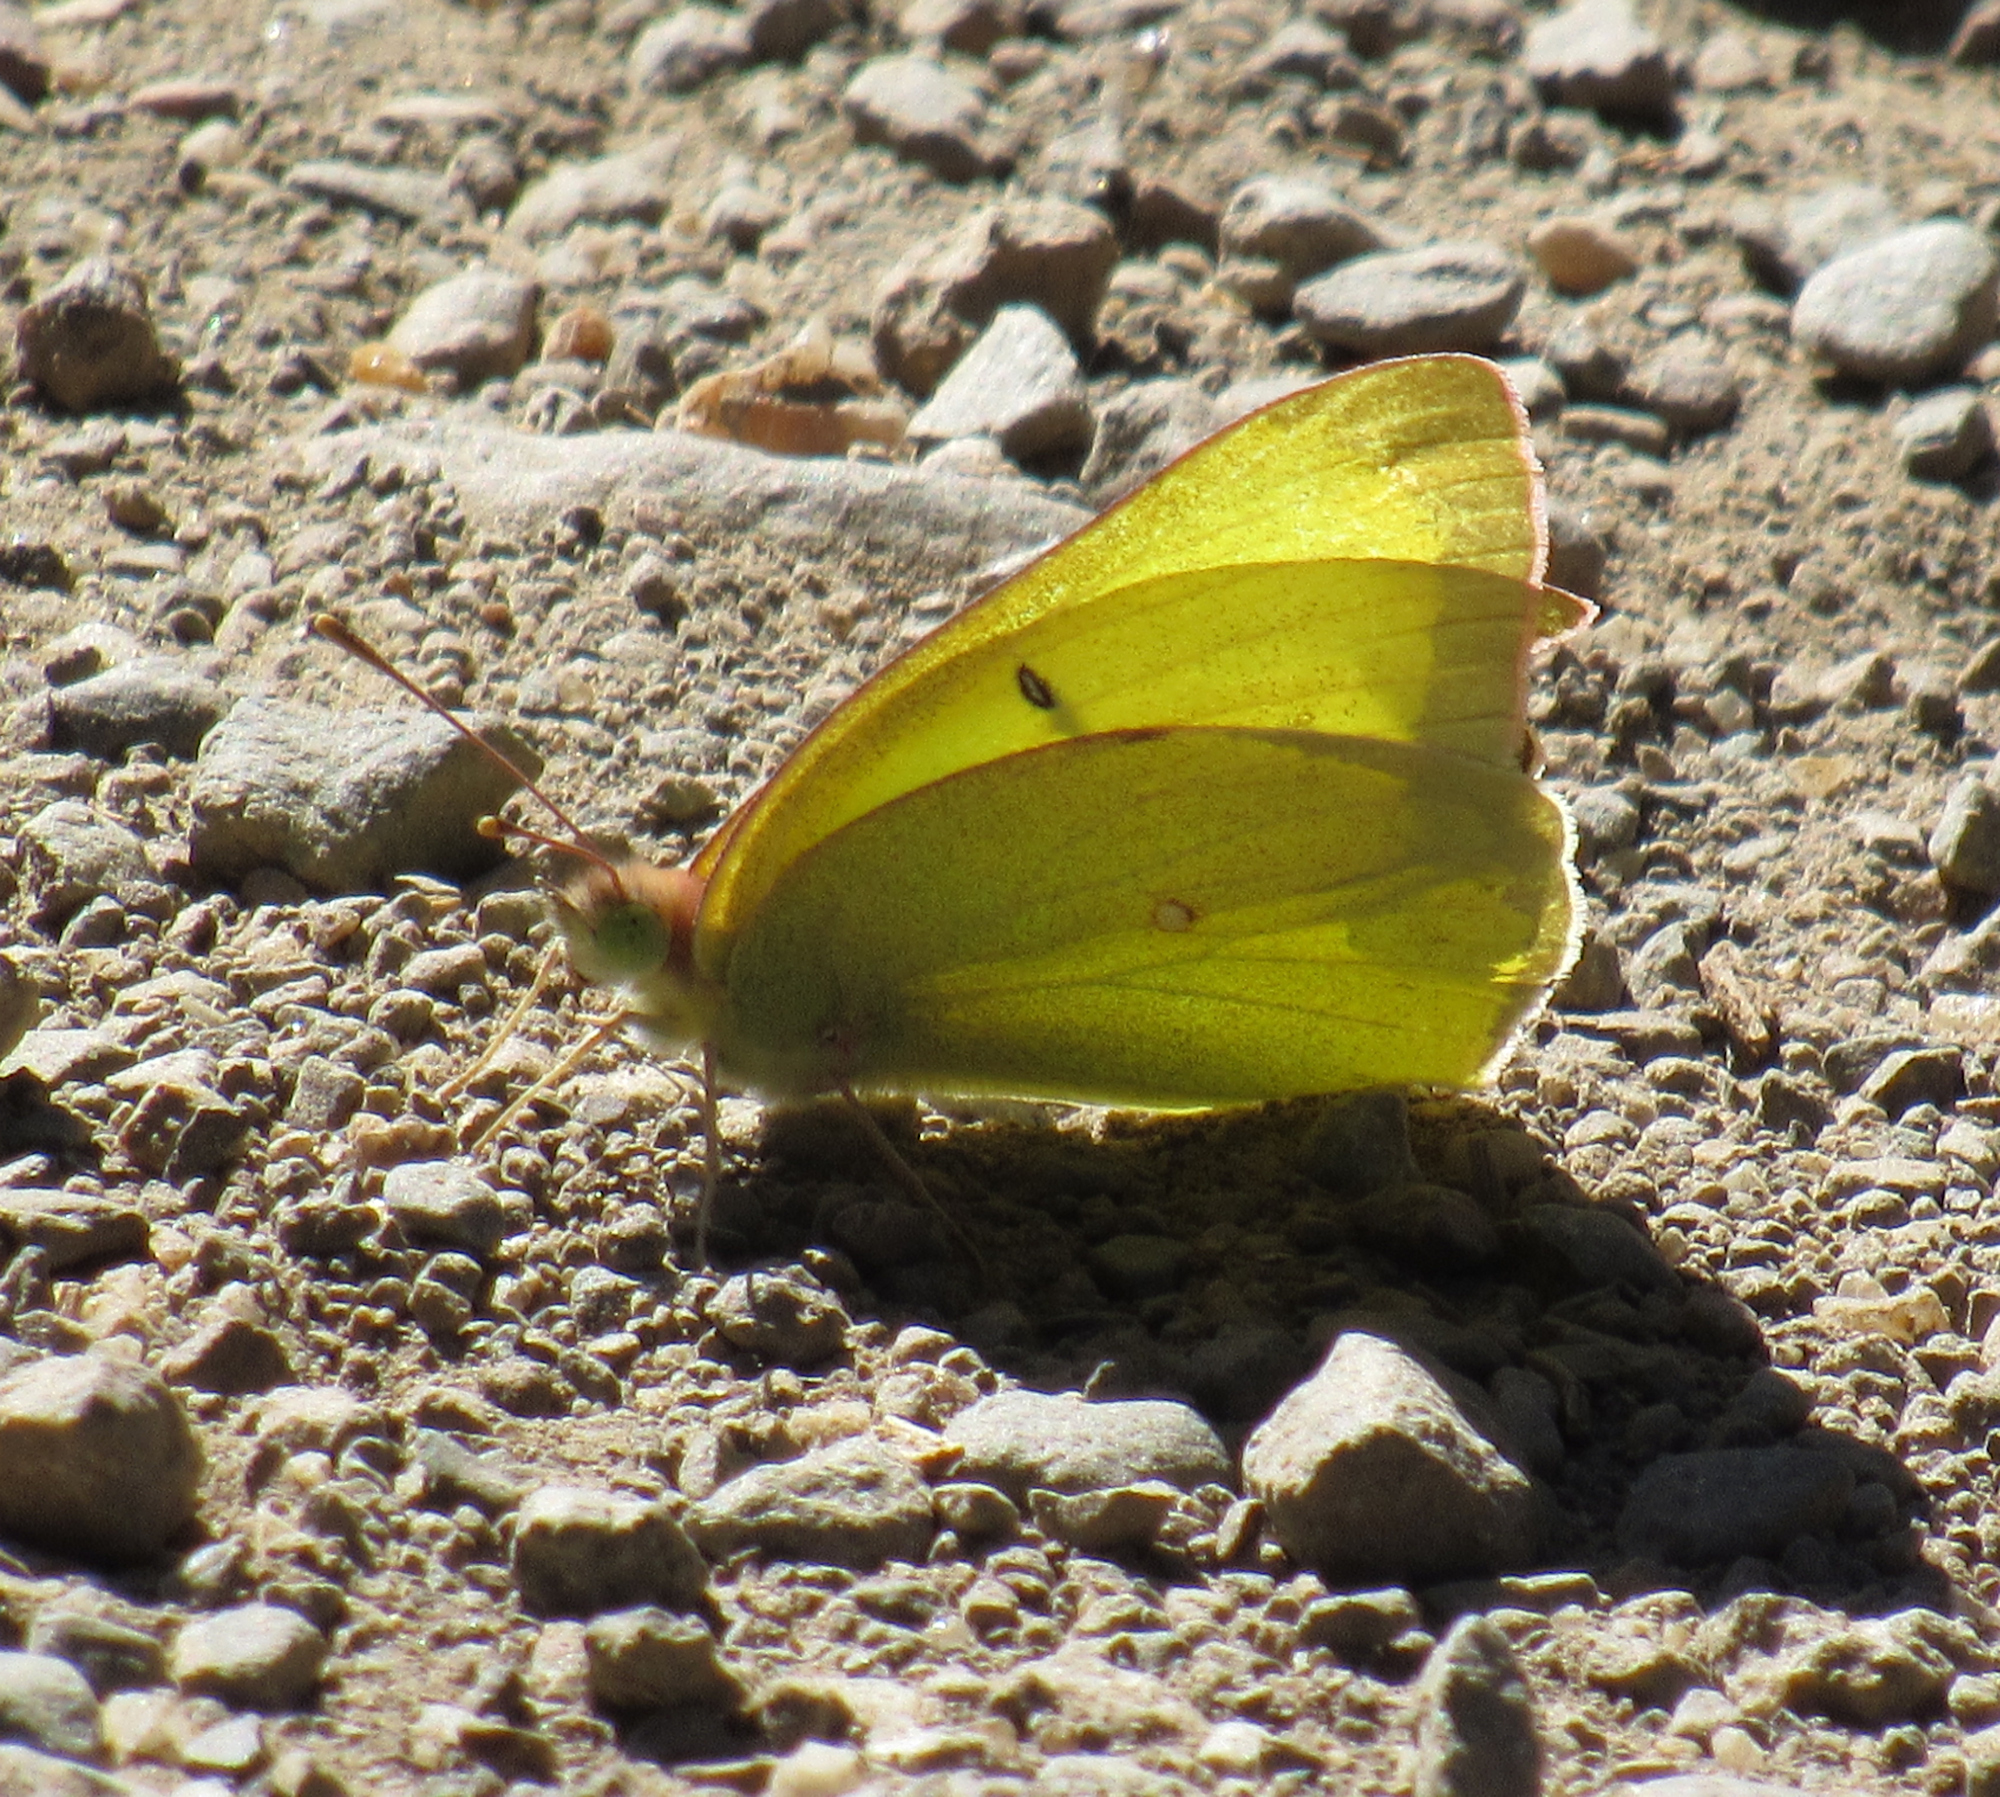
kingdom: Animalia
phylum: Arthropoda
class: Insecta
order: Lepidoptera
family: Pieridae
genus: Colias
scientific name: Colias alexandra
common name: Alexandra sulphur
